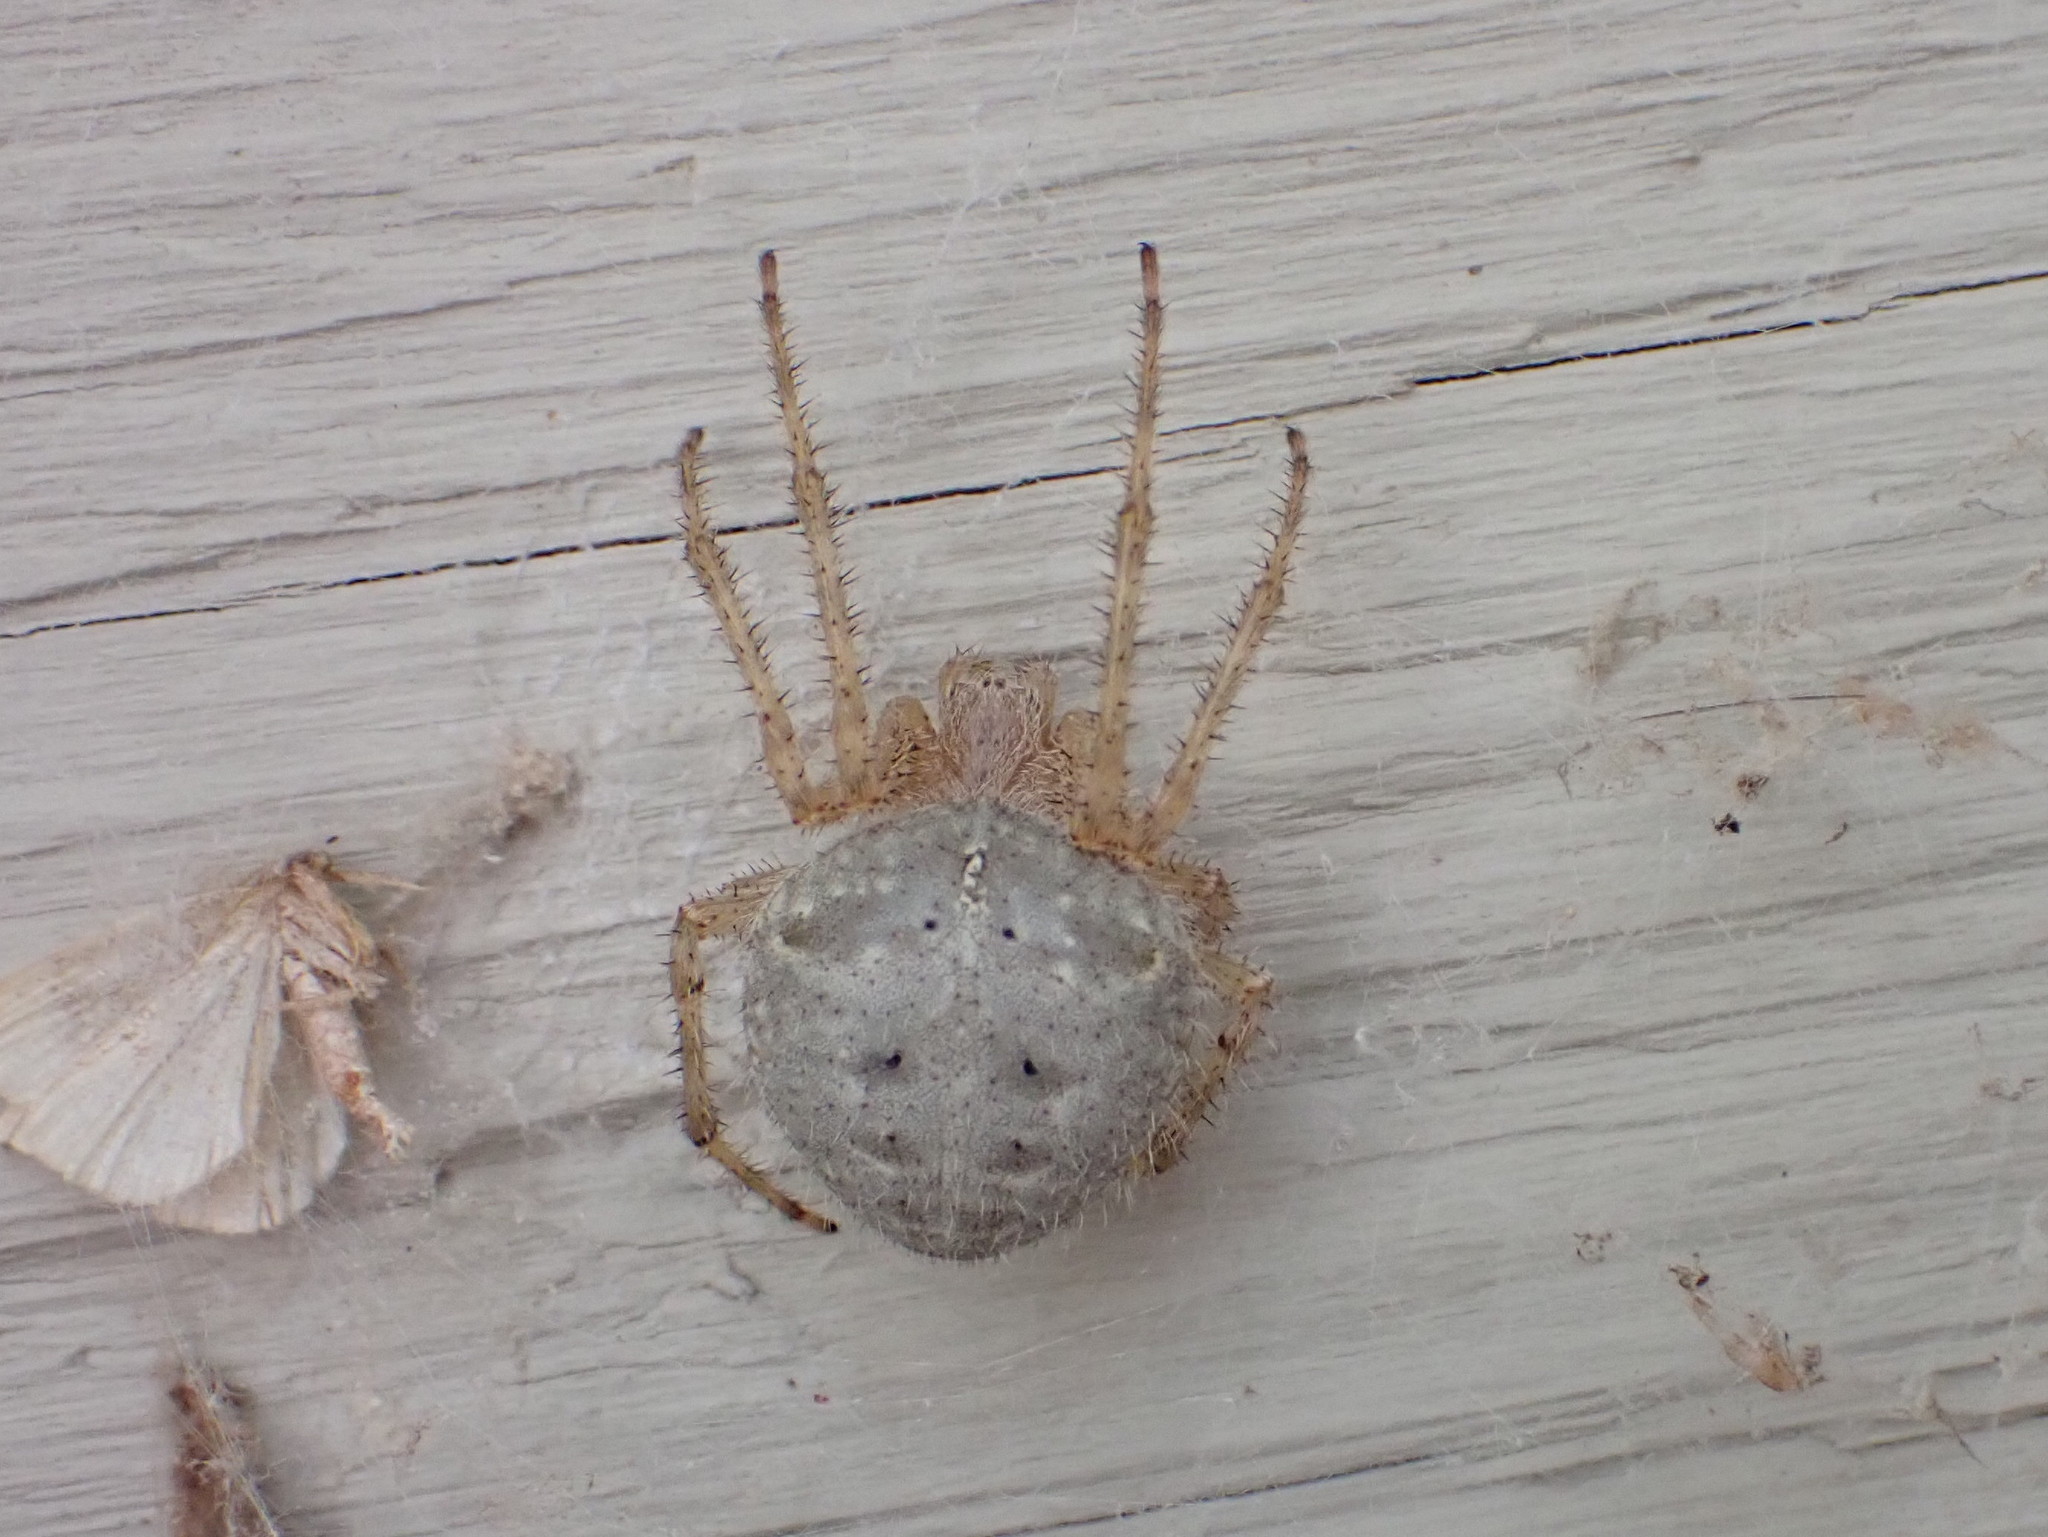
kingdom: Animalia
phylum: Arthropoda
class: Arachnida
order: Araneae
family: Araneidae
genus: Araneus
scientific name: Araneus cavaticus
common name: Barn orbweaver
